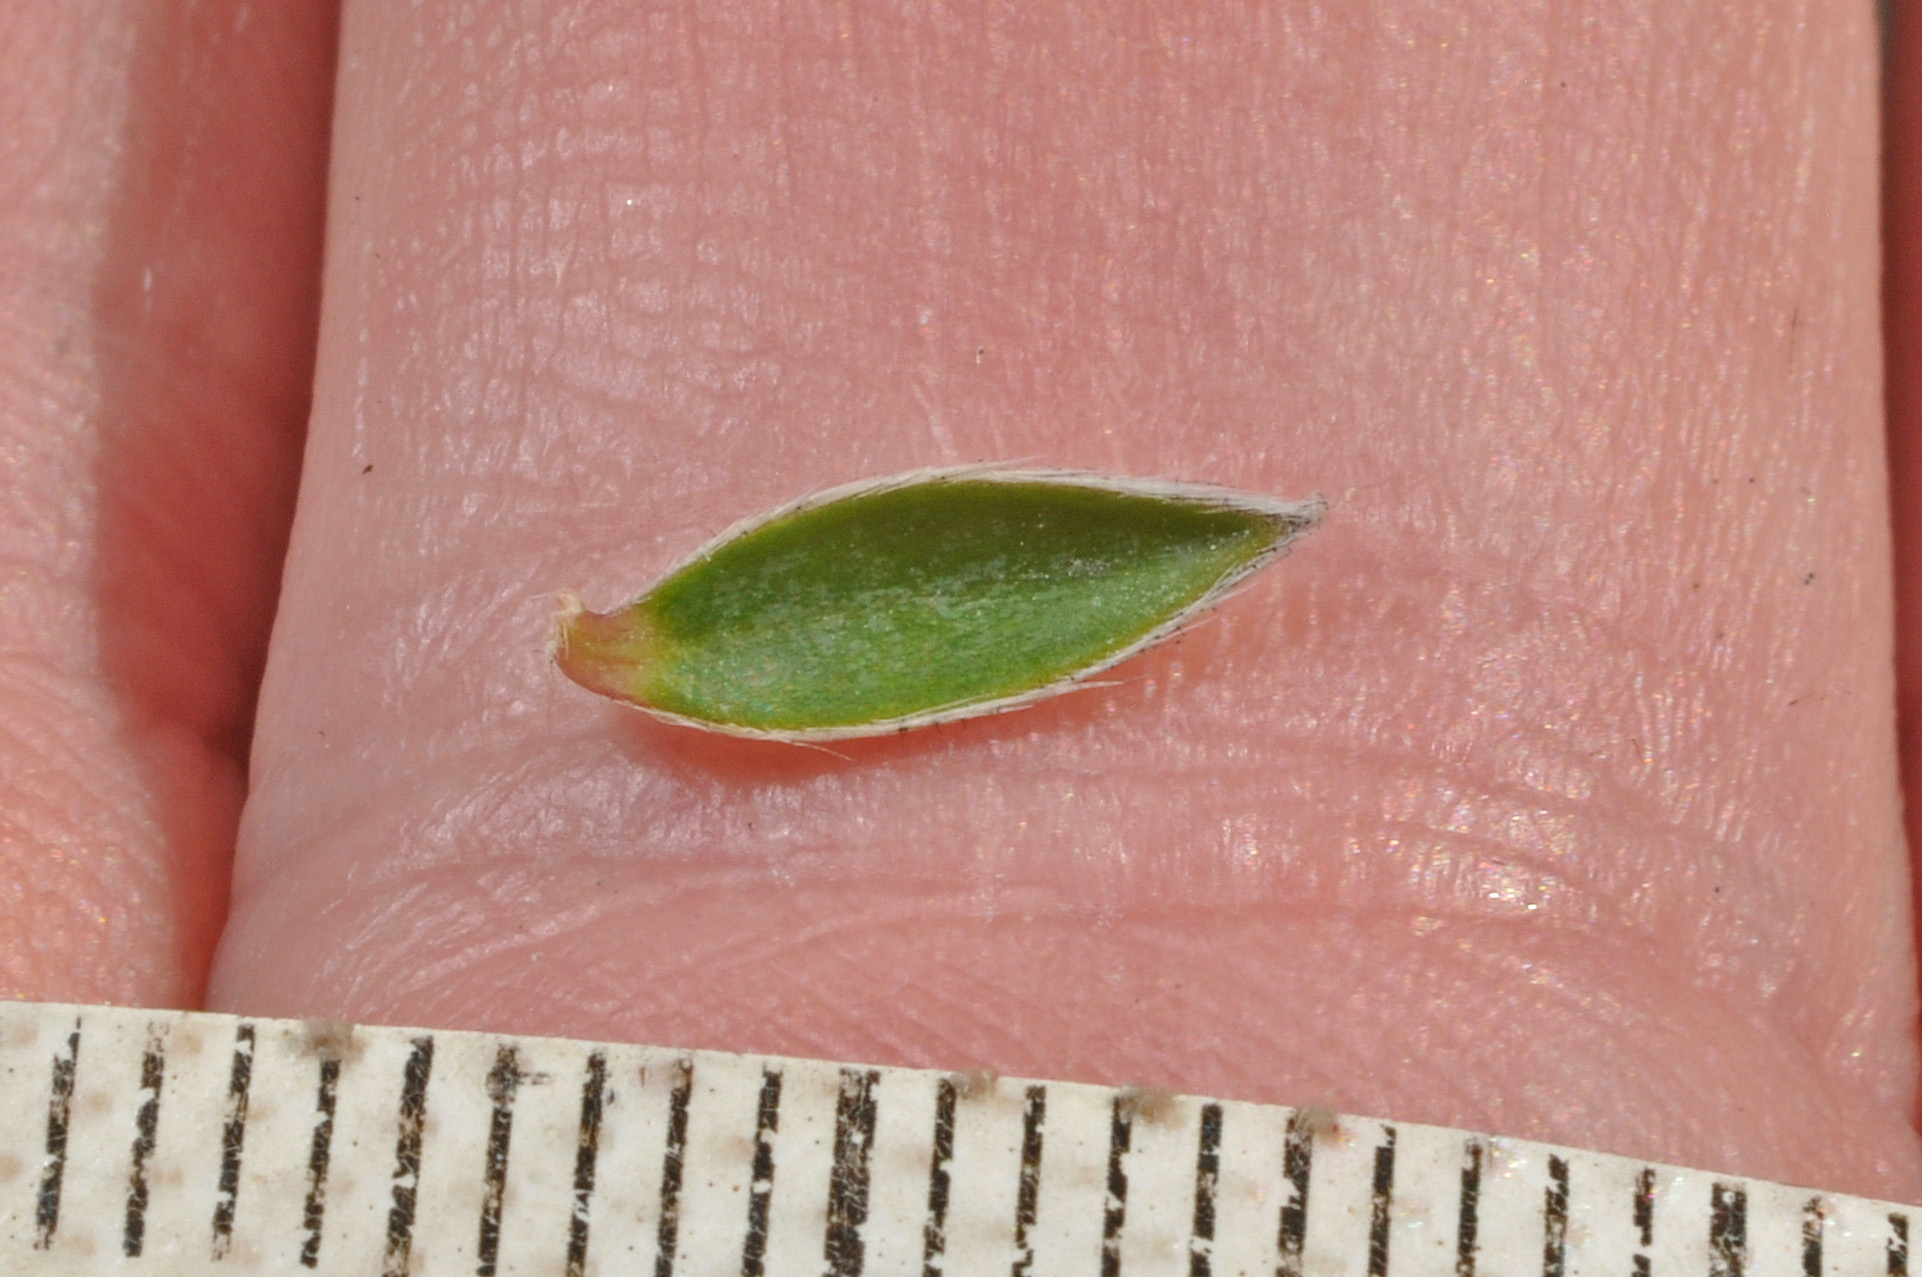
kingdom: Plantae
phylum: Tracheophyta
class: Magnoliopsida
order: Malvales
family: Thymelaeaceae
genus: Pimelea
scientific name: Pimelea pseudolyallii
